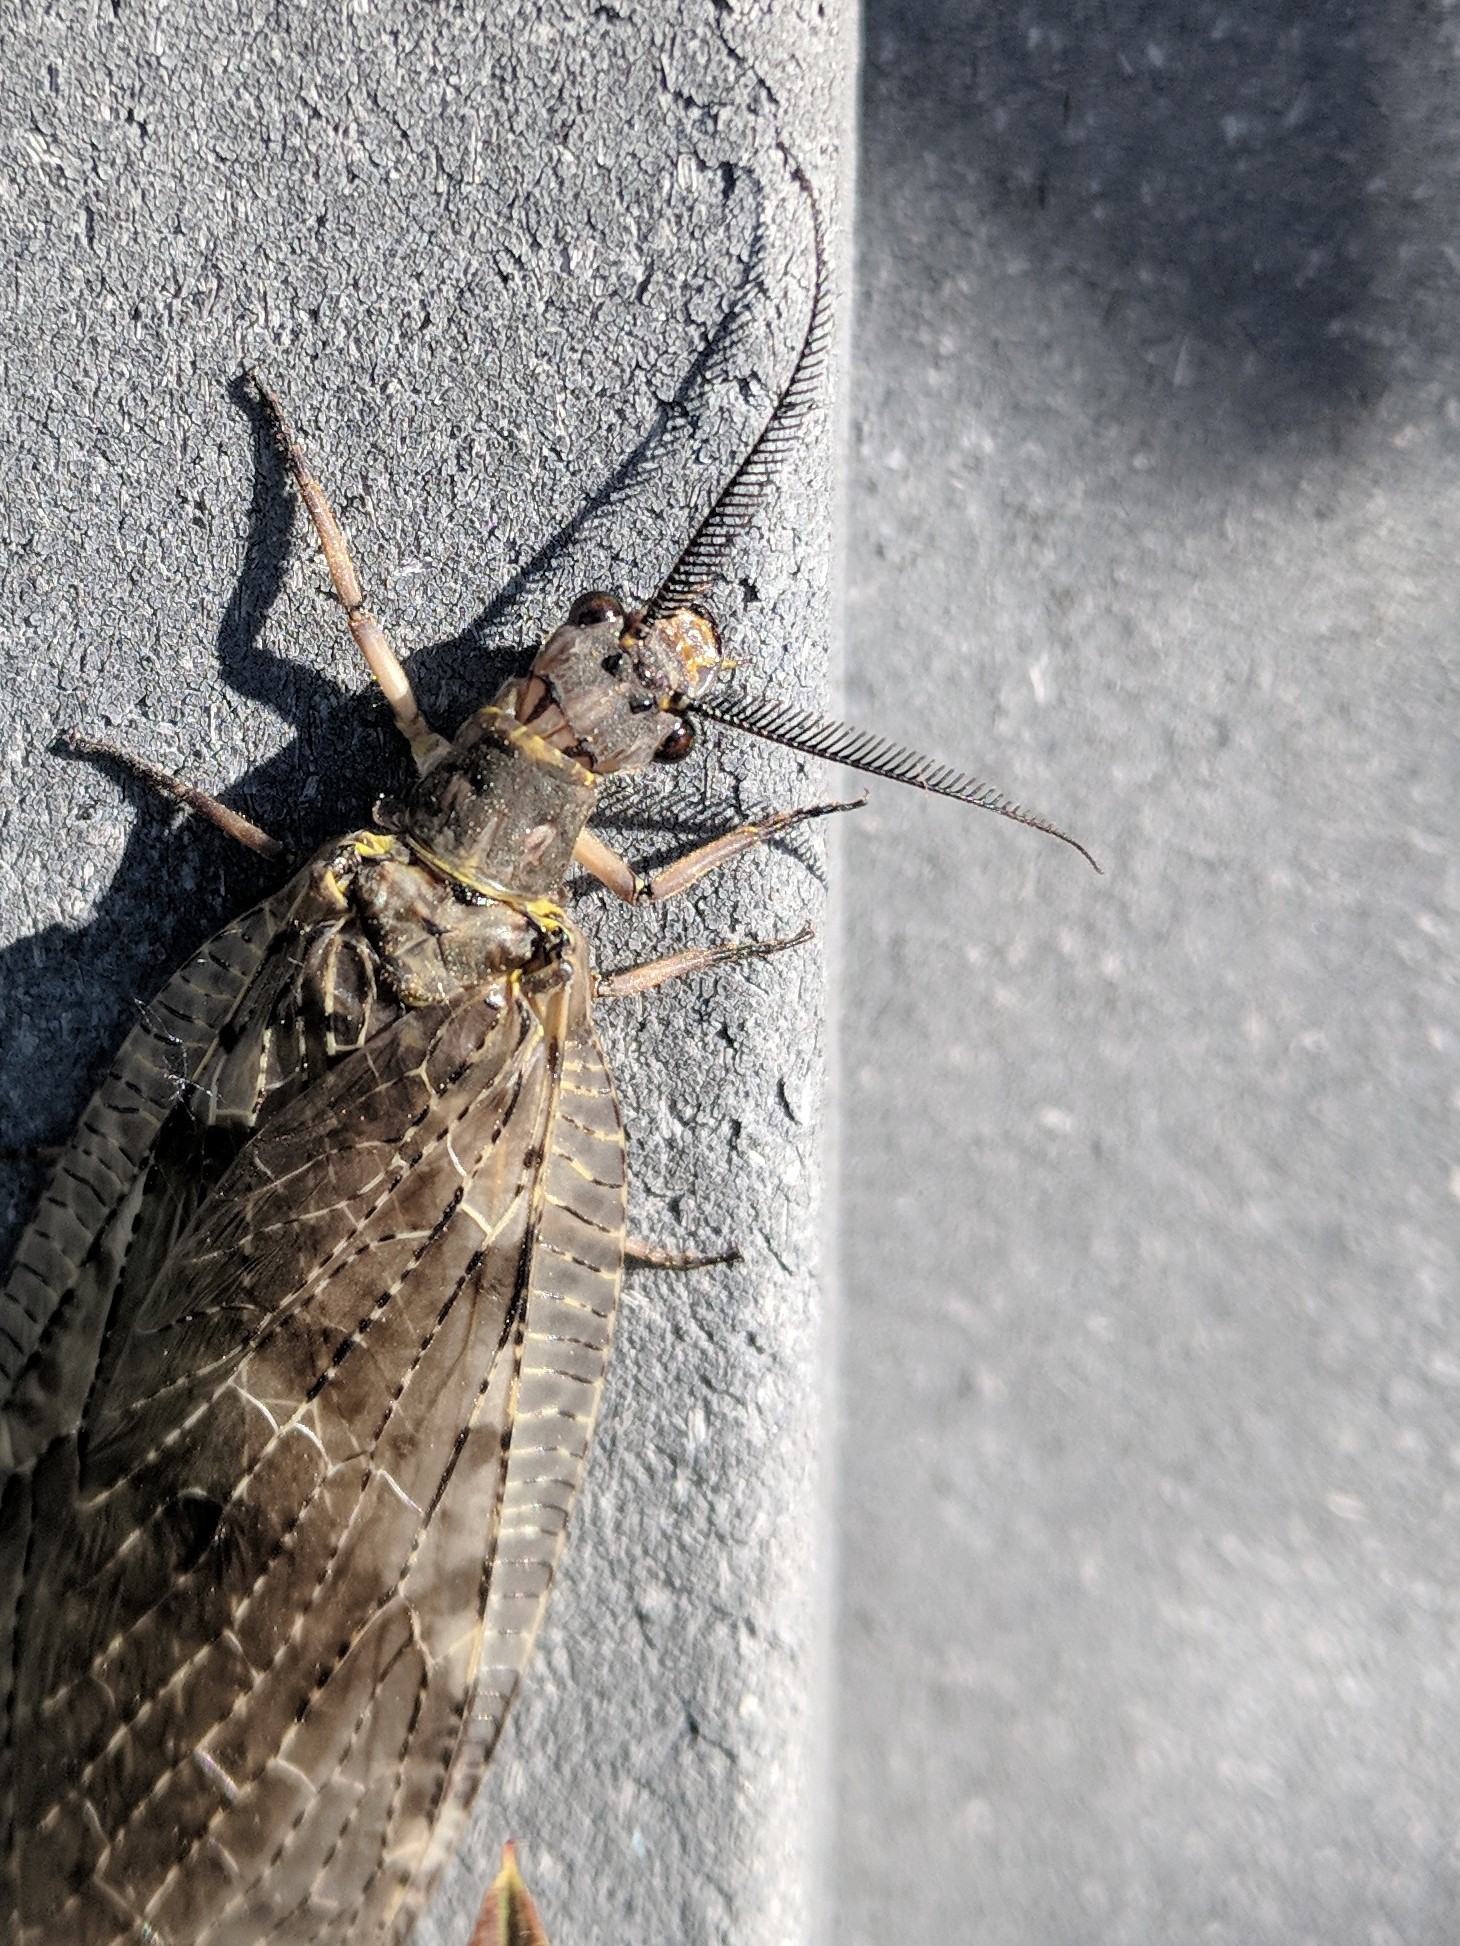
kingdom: Animalia
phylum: Arthropoda
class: Insecta
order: Megaloptera
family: Corydalidae
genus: Chauliodes
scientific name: Chauliodes pectinicornis
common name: Summer fishfly
